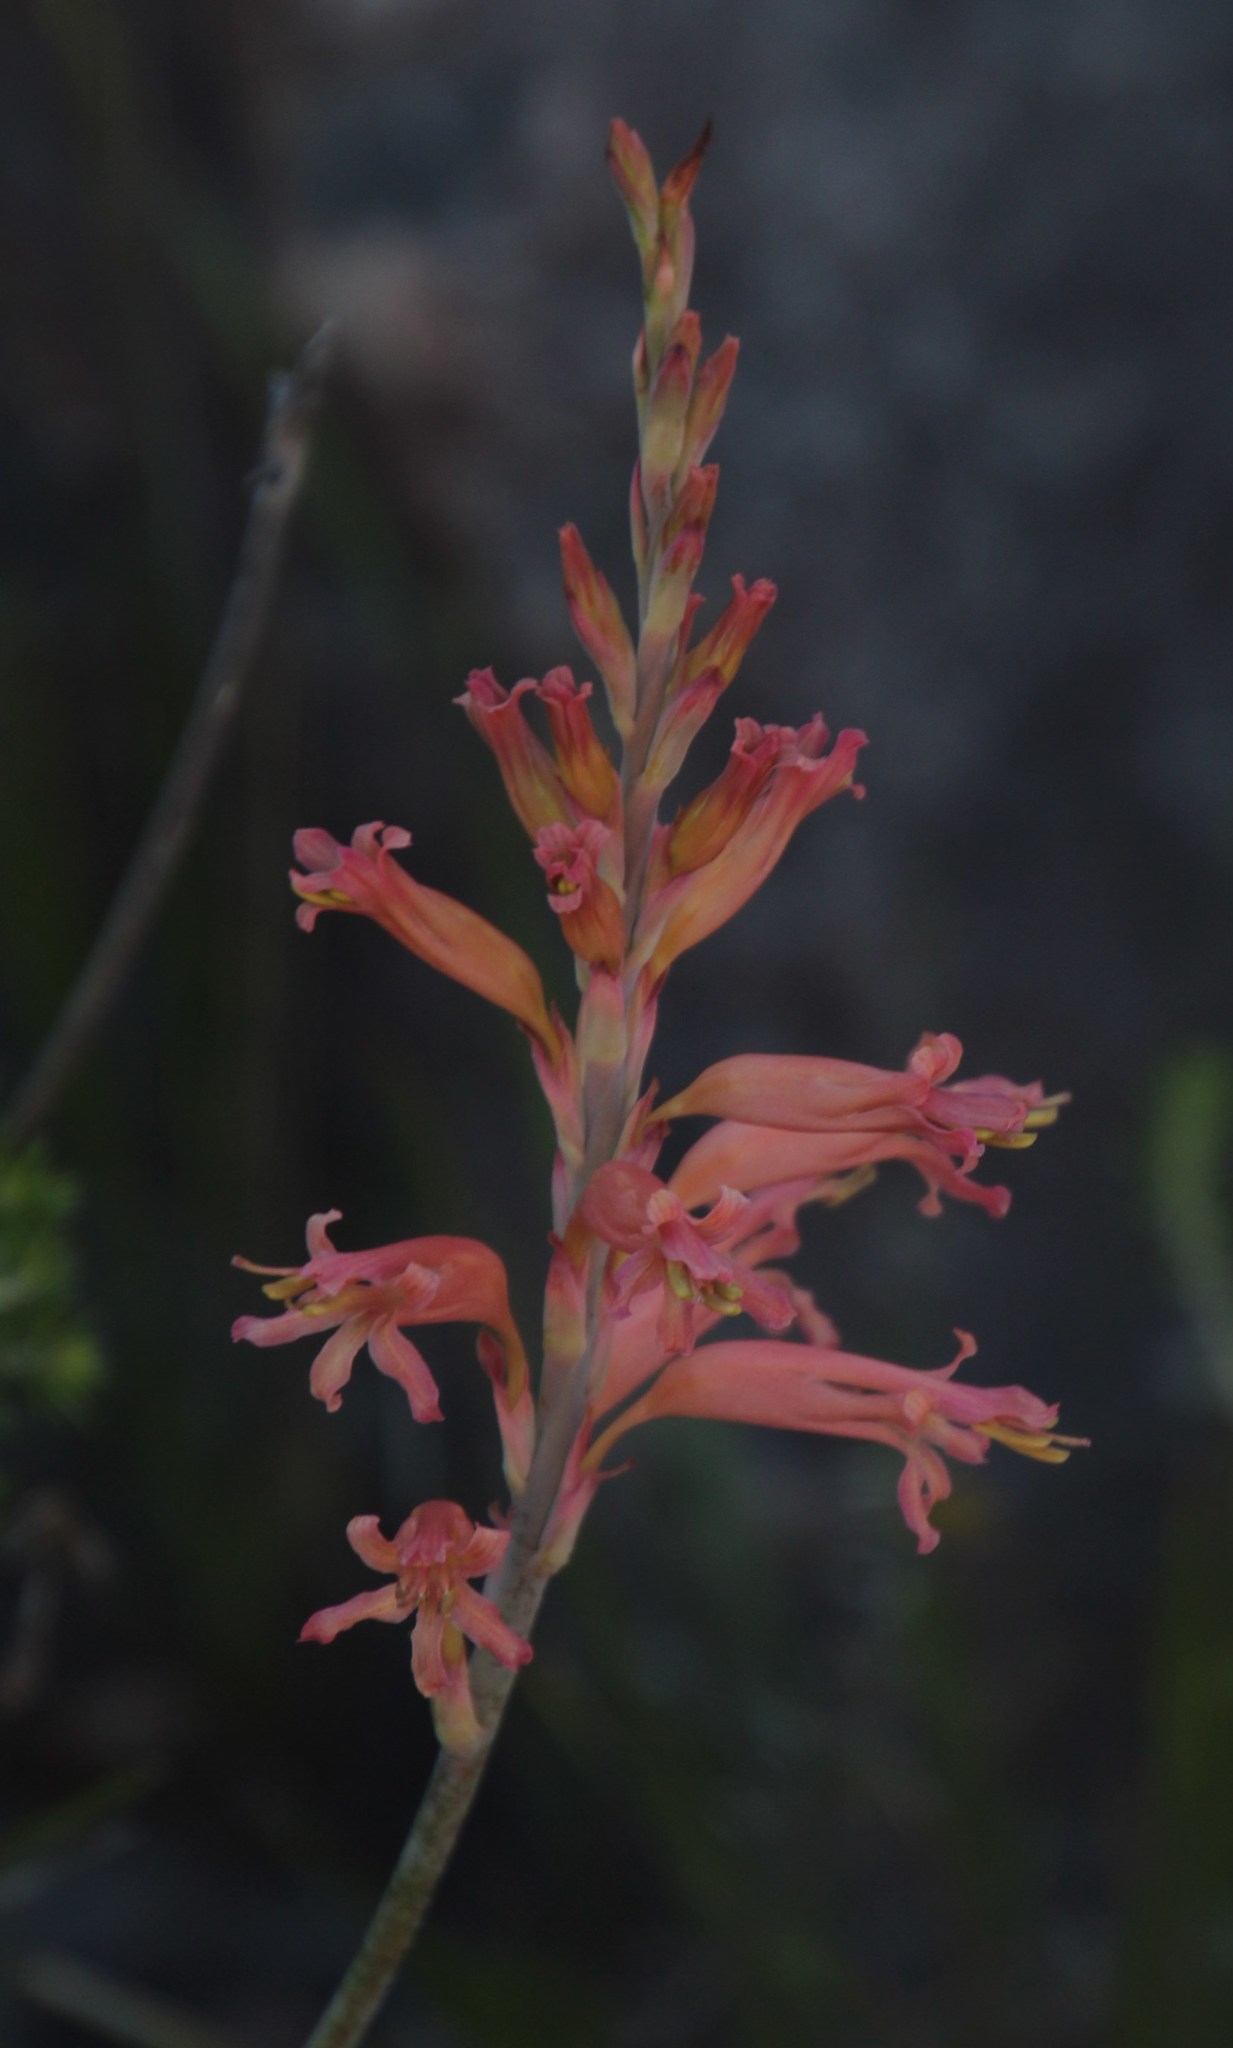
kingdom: Plantae
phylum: Tracheophyta
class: Liliopsida
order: Asparagales
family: Iridaceae
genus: Tritoniopsis
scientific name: Tritoniopsis antholyza
